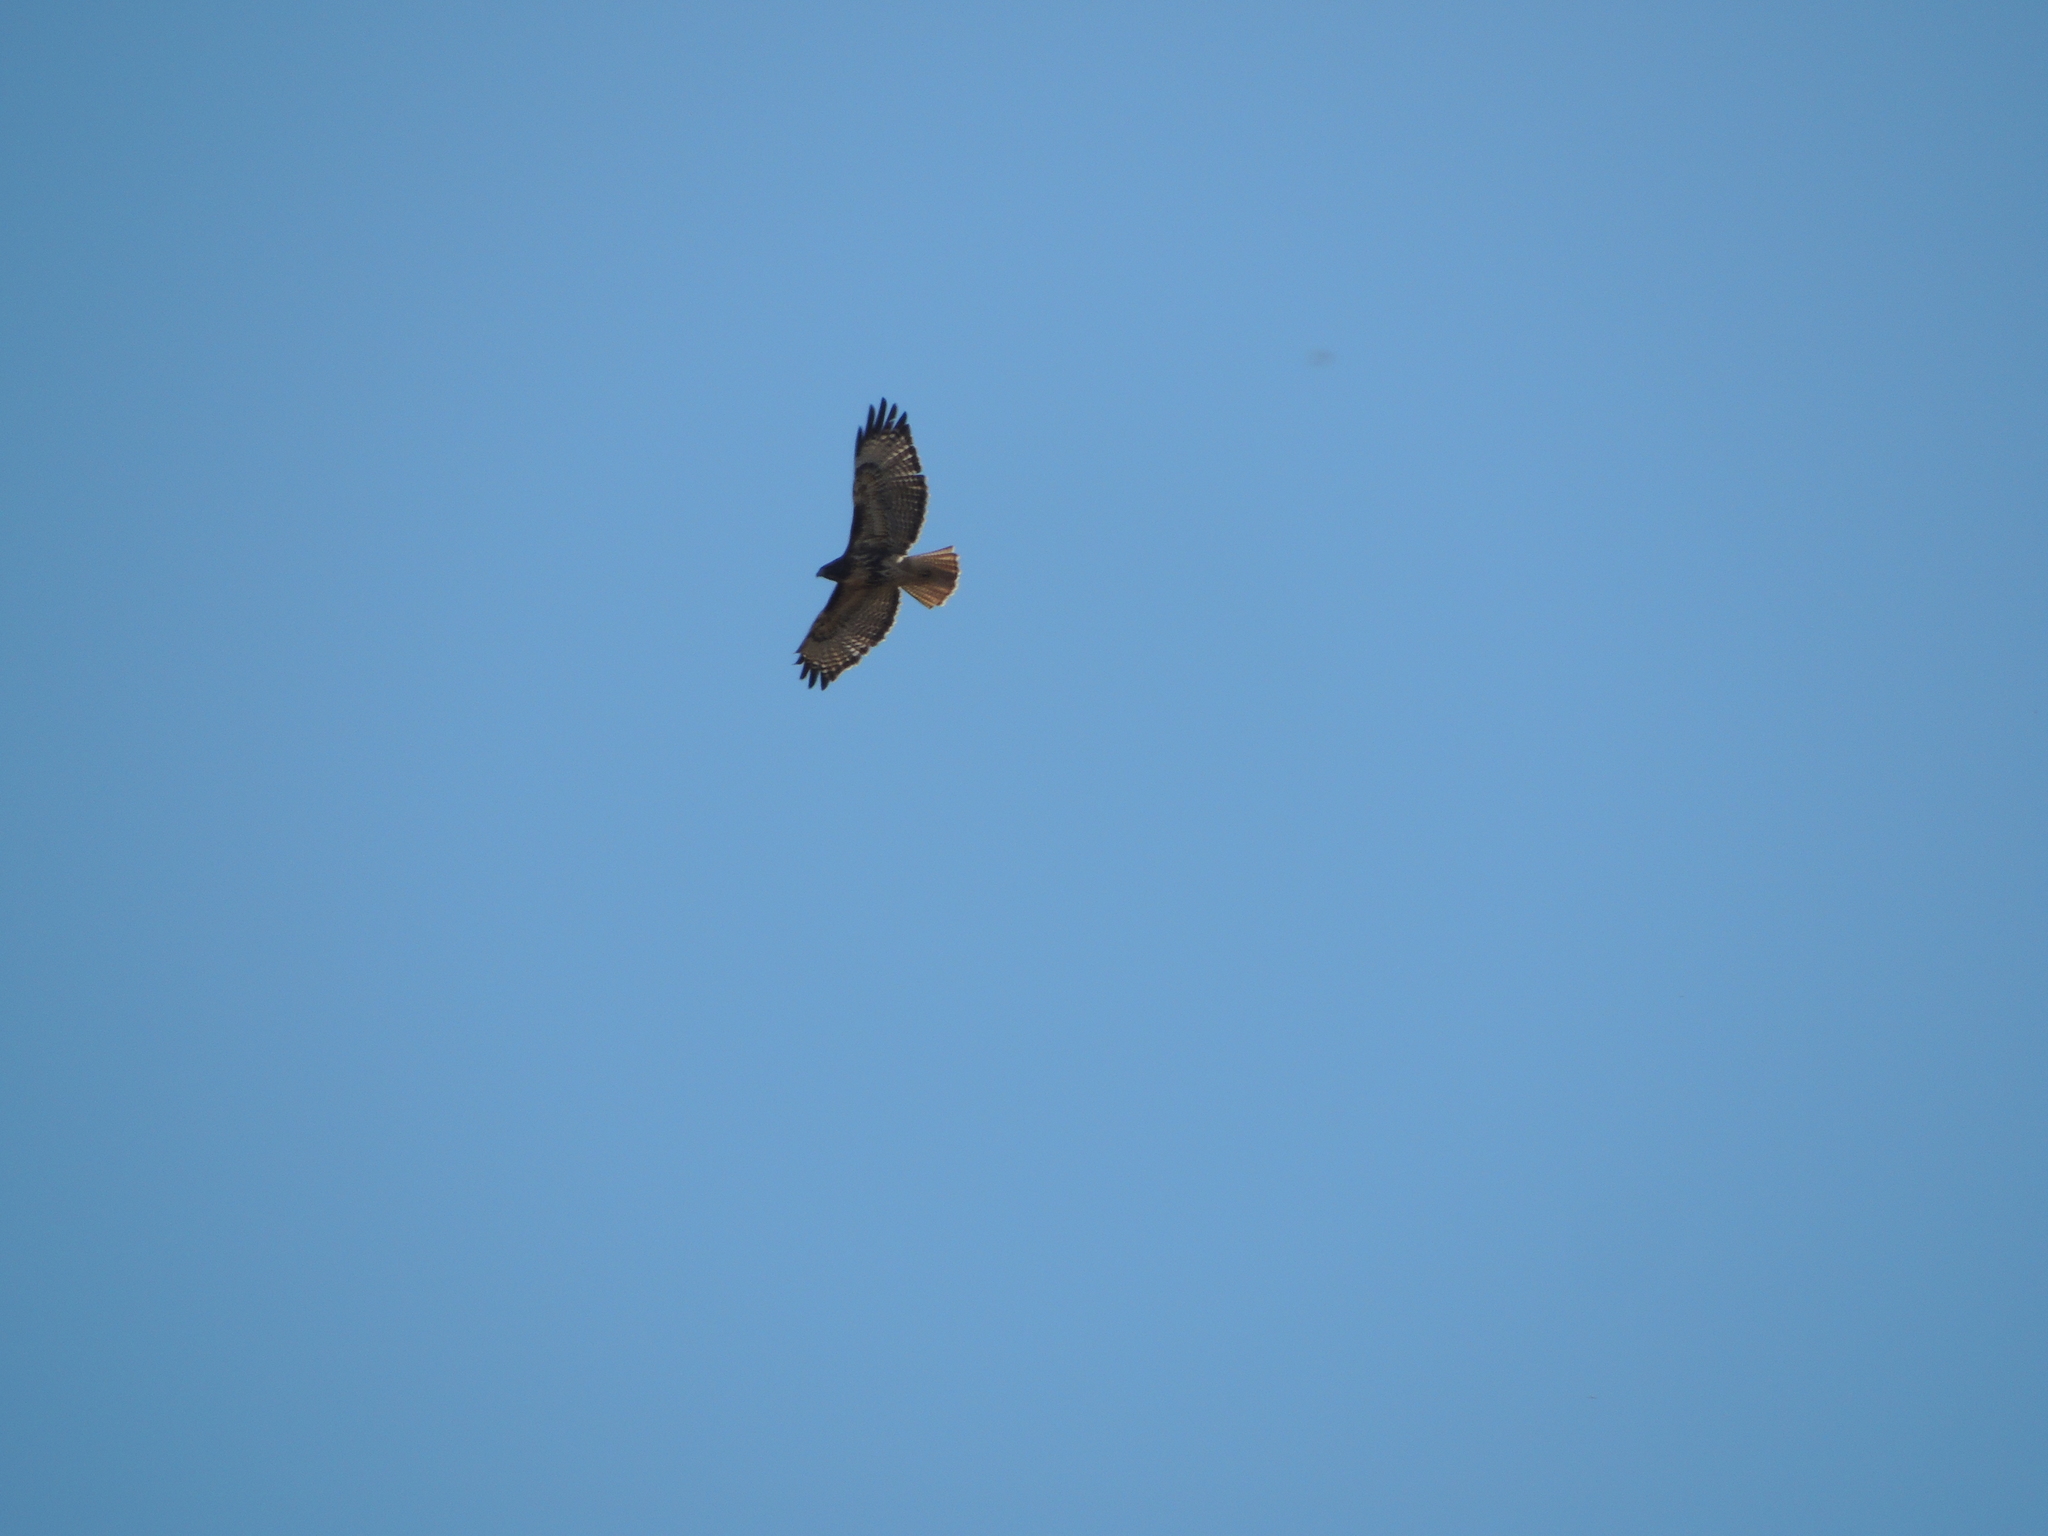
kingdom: Animalia
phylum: Chordata
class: Aves
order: Accipitriformes
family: Accipitridae
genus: Buteo
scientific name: Buteo jamaicensis
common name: Red-tailed hawk
